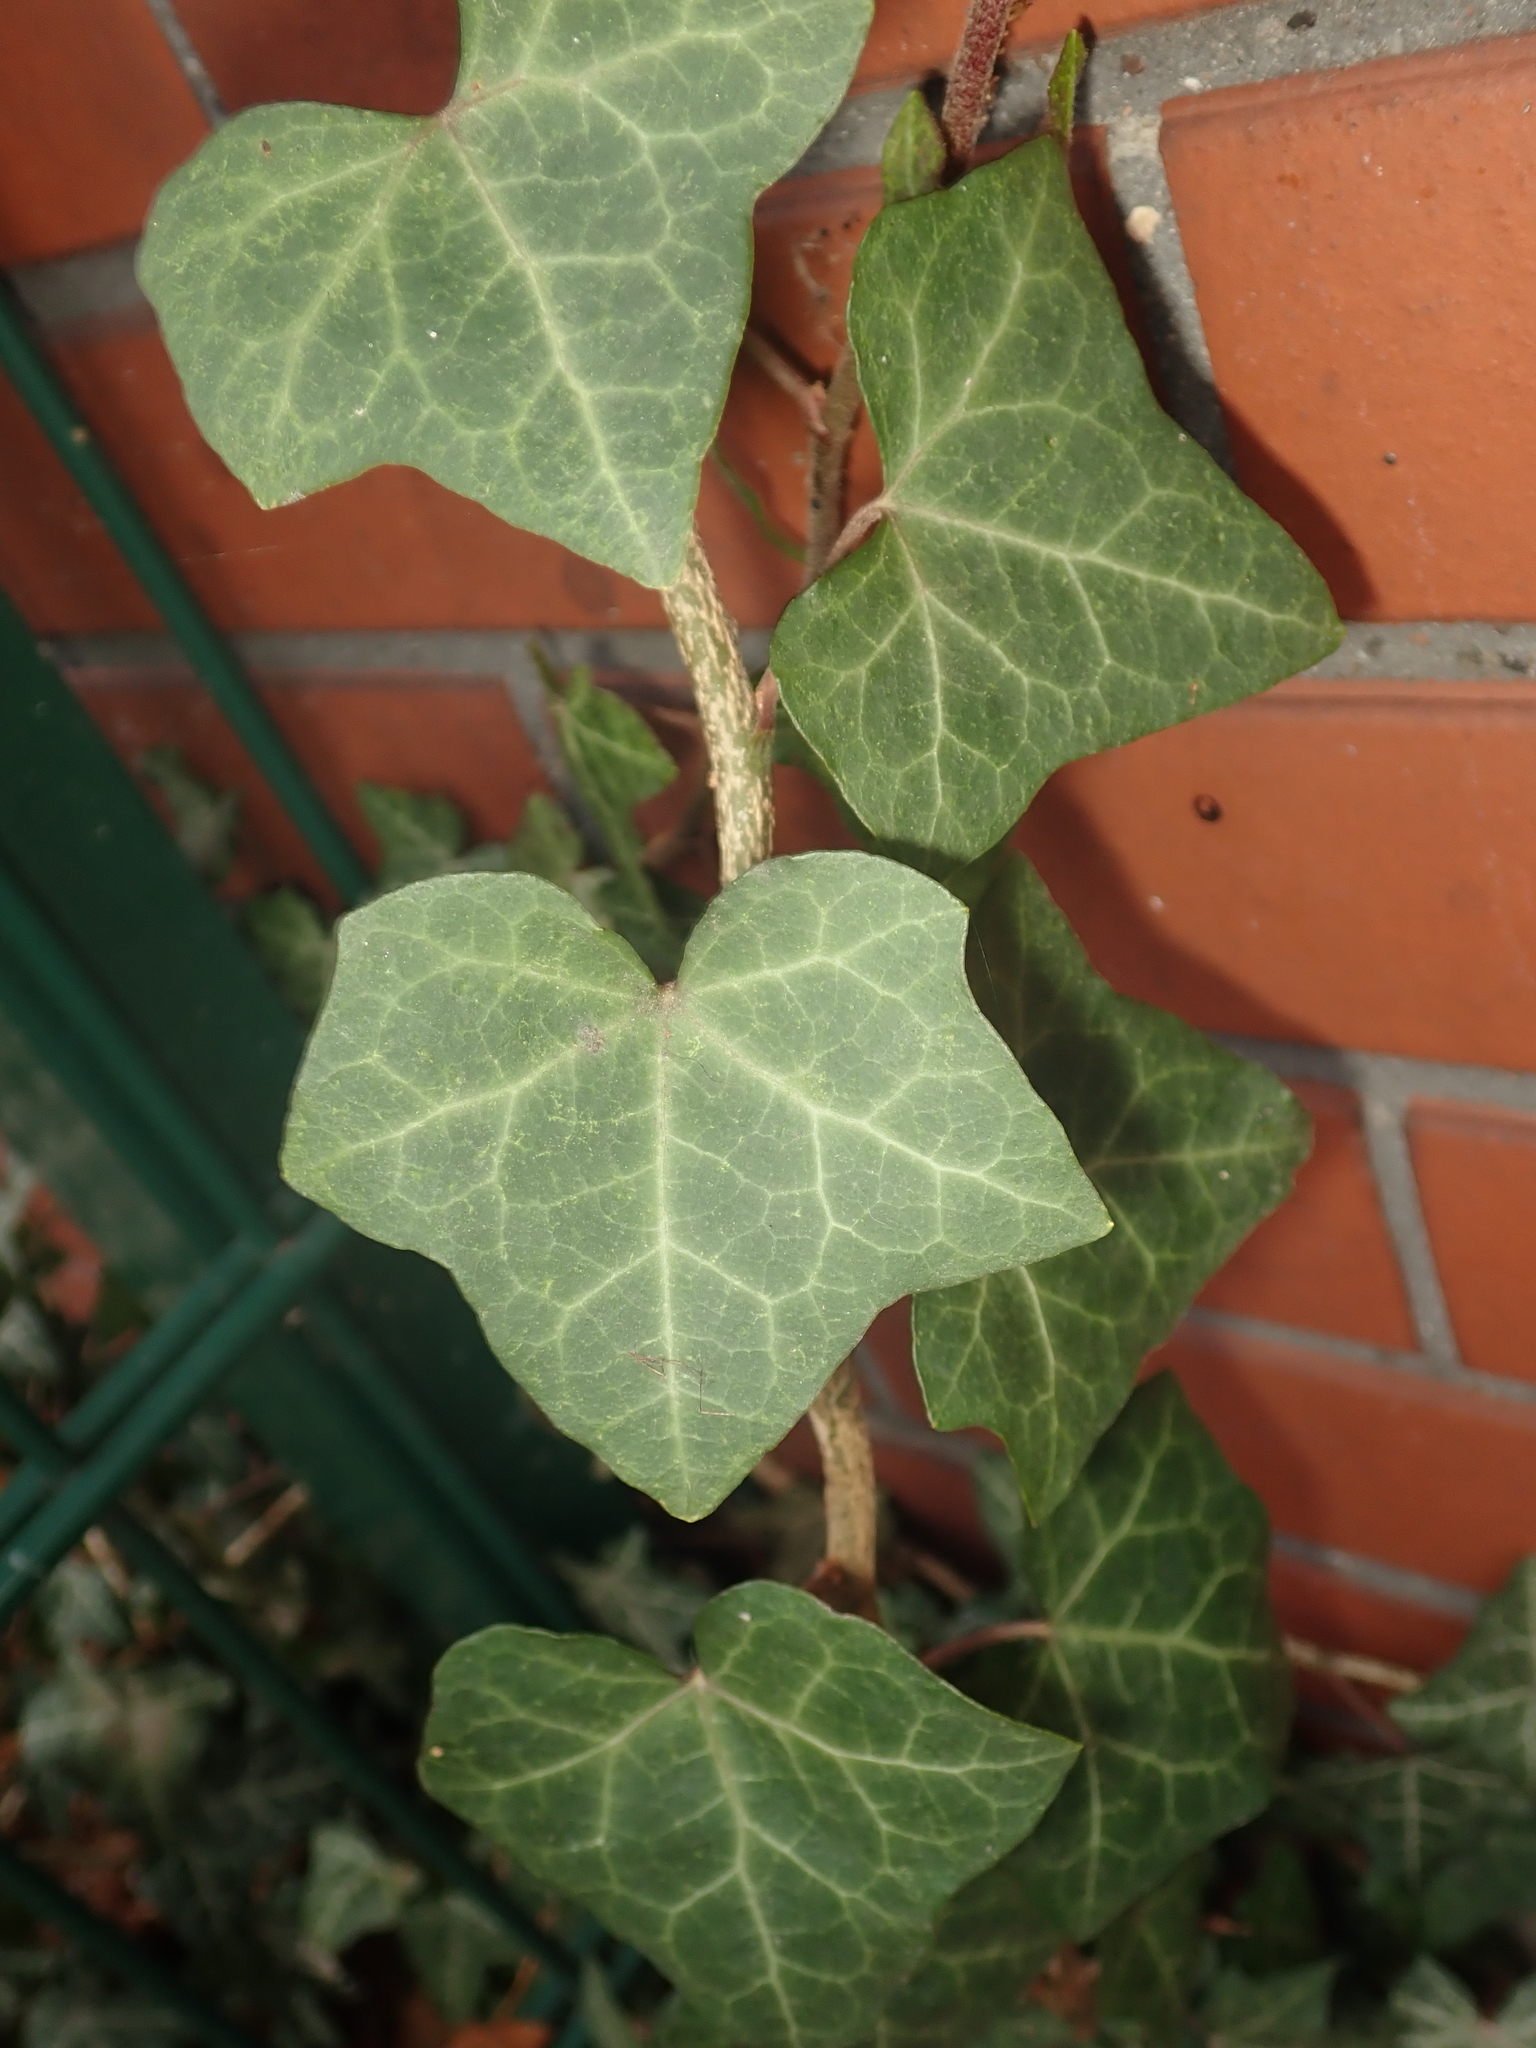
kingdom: Plantae
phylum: Tracheophyta
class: Magnoliopsida
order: Apiales
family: Araliaceae
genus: Hedera
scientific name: Hedera helix
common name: Ivy
